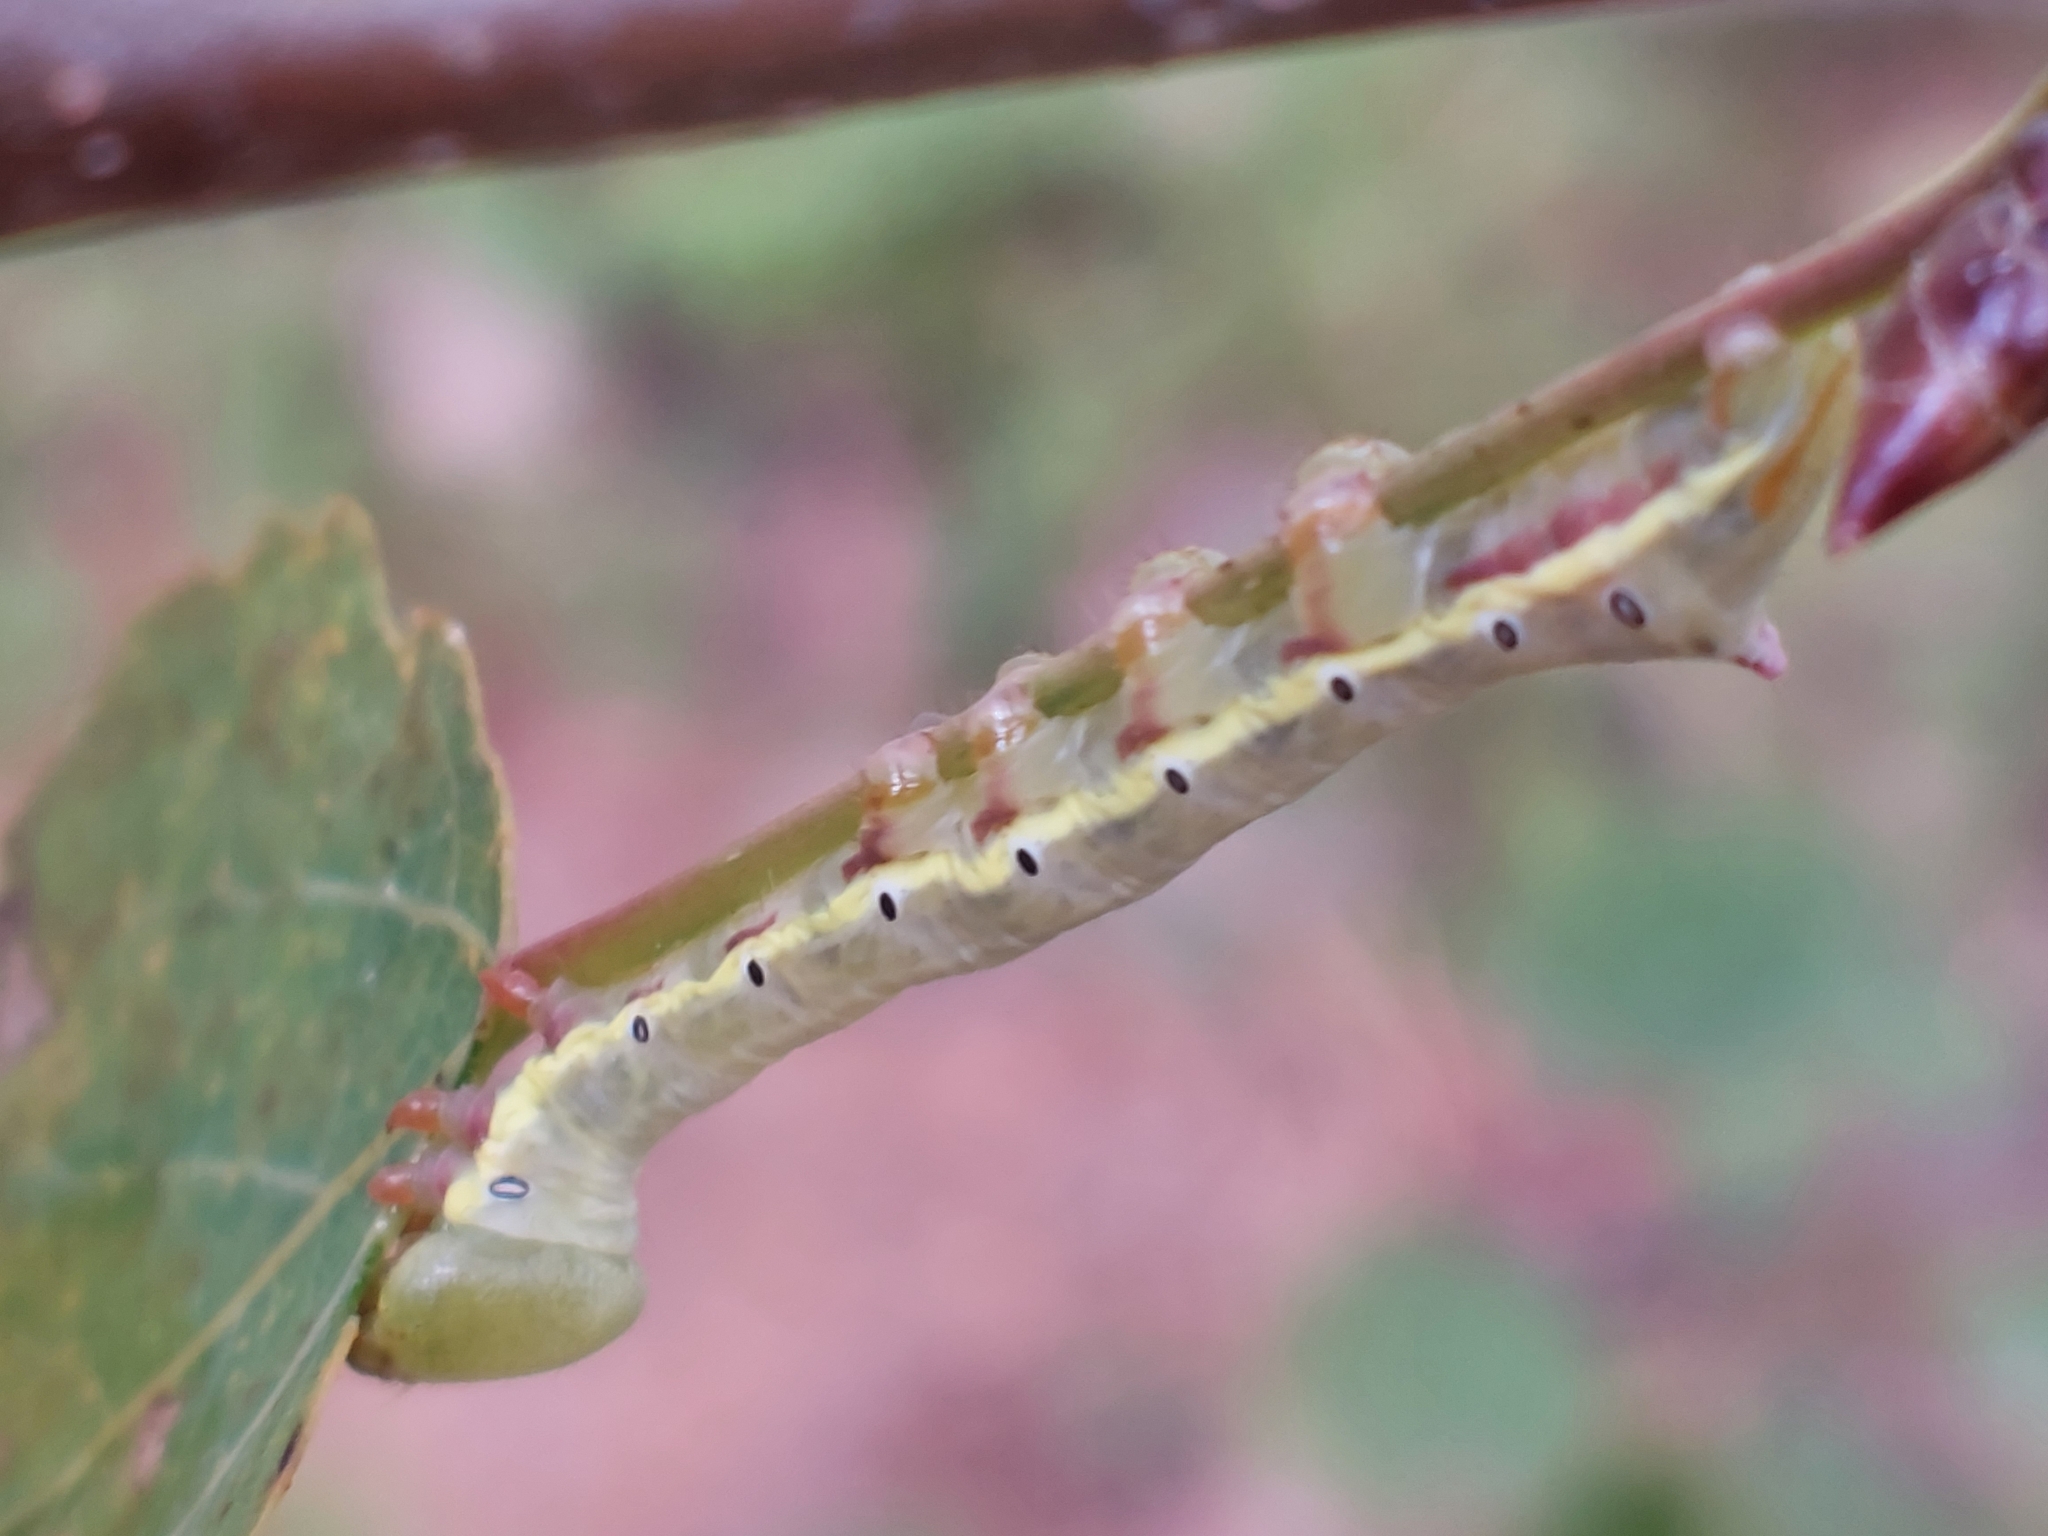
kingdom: Animalia
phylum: Arthropoda
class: Insecta
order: Lepidoptera
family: Notodontidae
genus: Pheosia
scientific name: Pheosia tremula
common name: Swallow prominent
